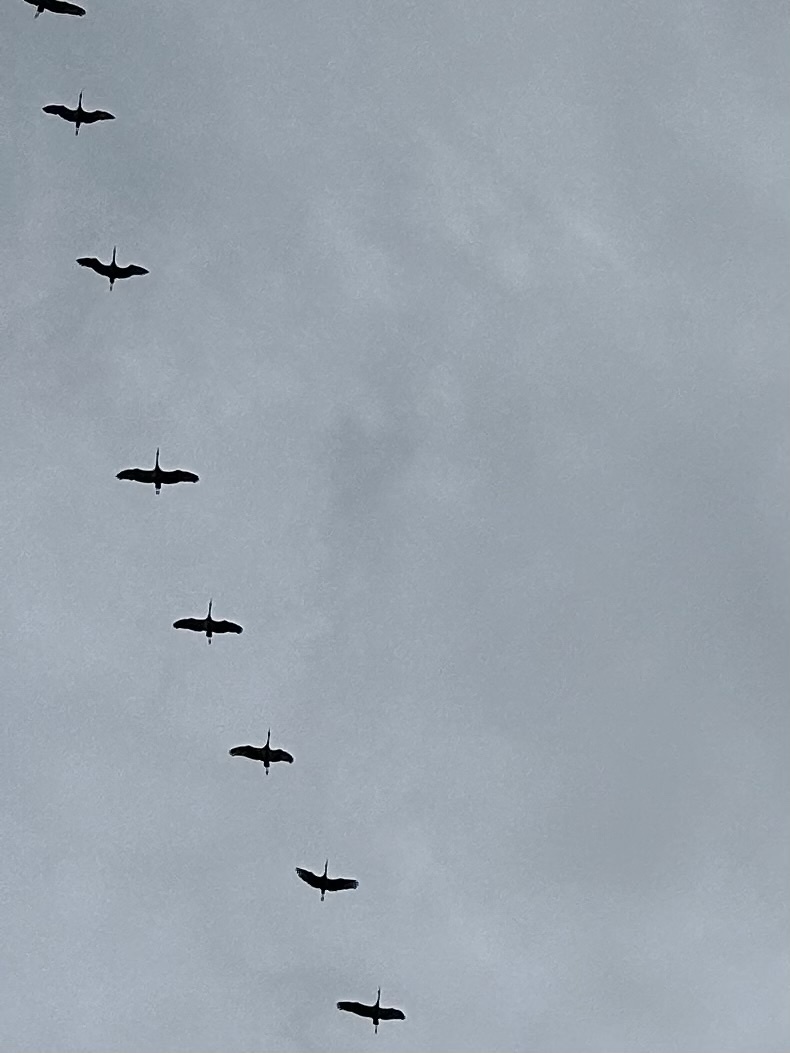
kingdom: Animalia
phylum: Chordata
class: Aves
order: Gruiformes
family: Gruidae
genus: Grus
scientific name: Grus canadensis
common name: Sandhill crane
